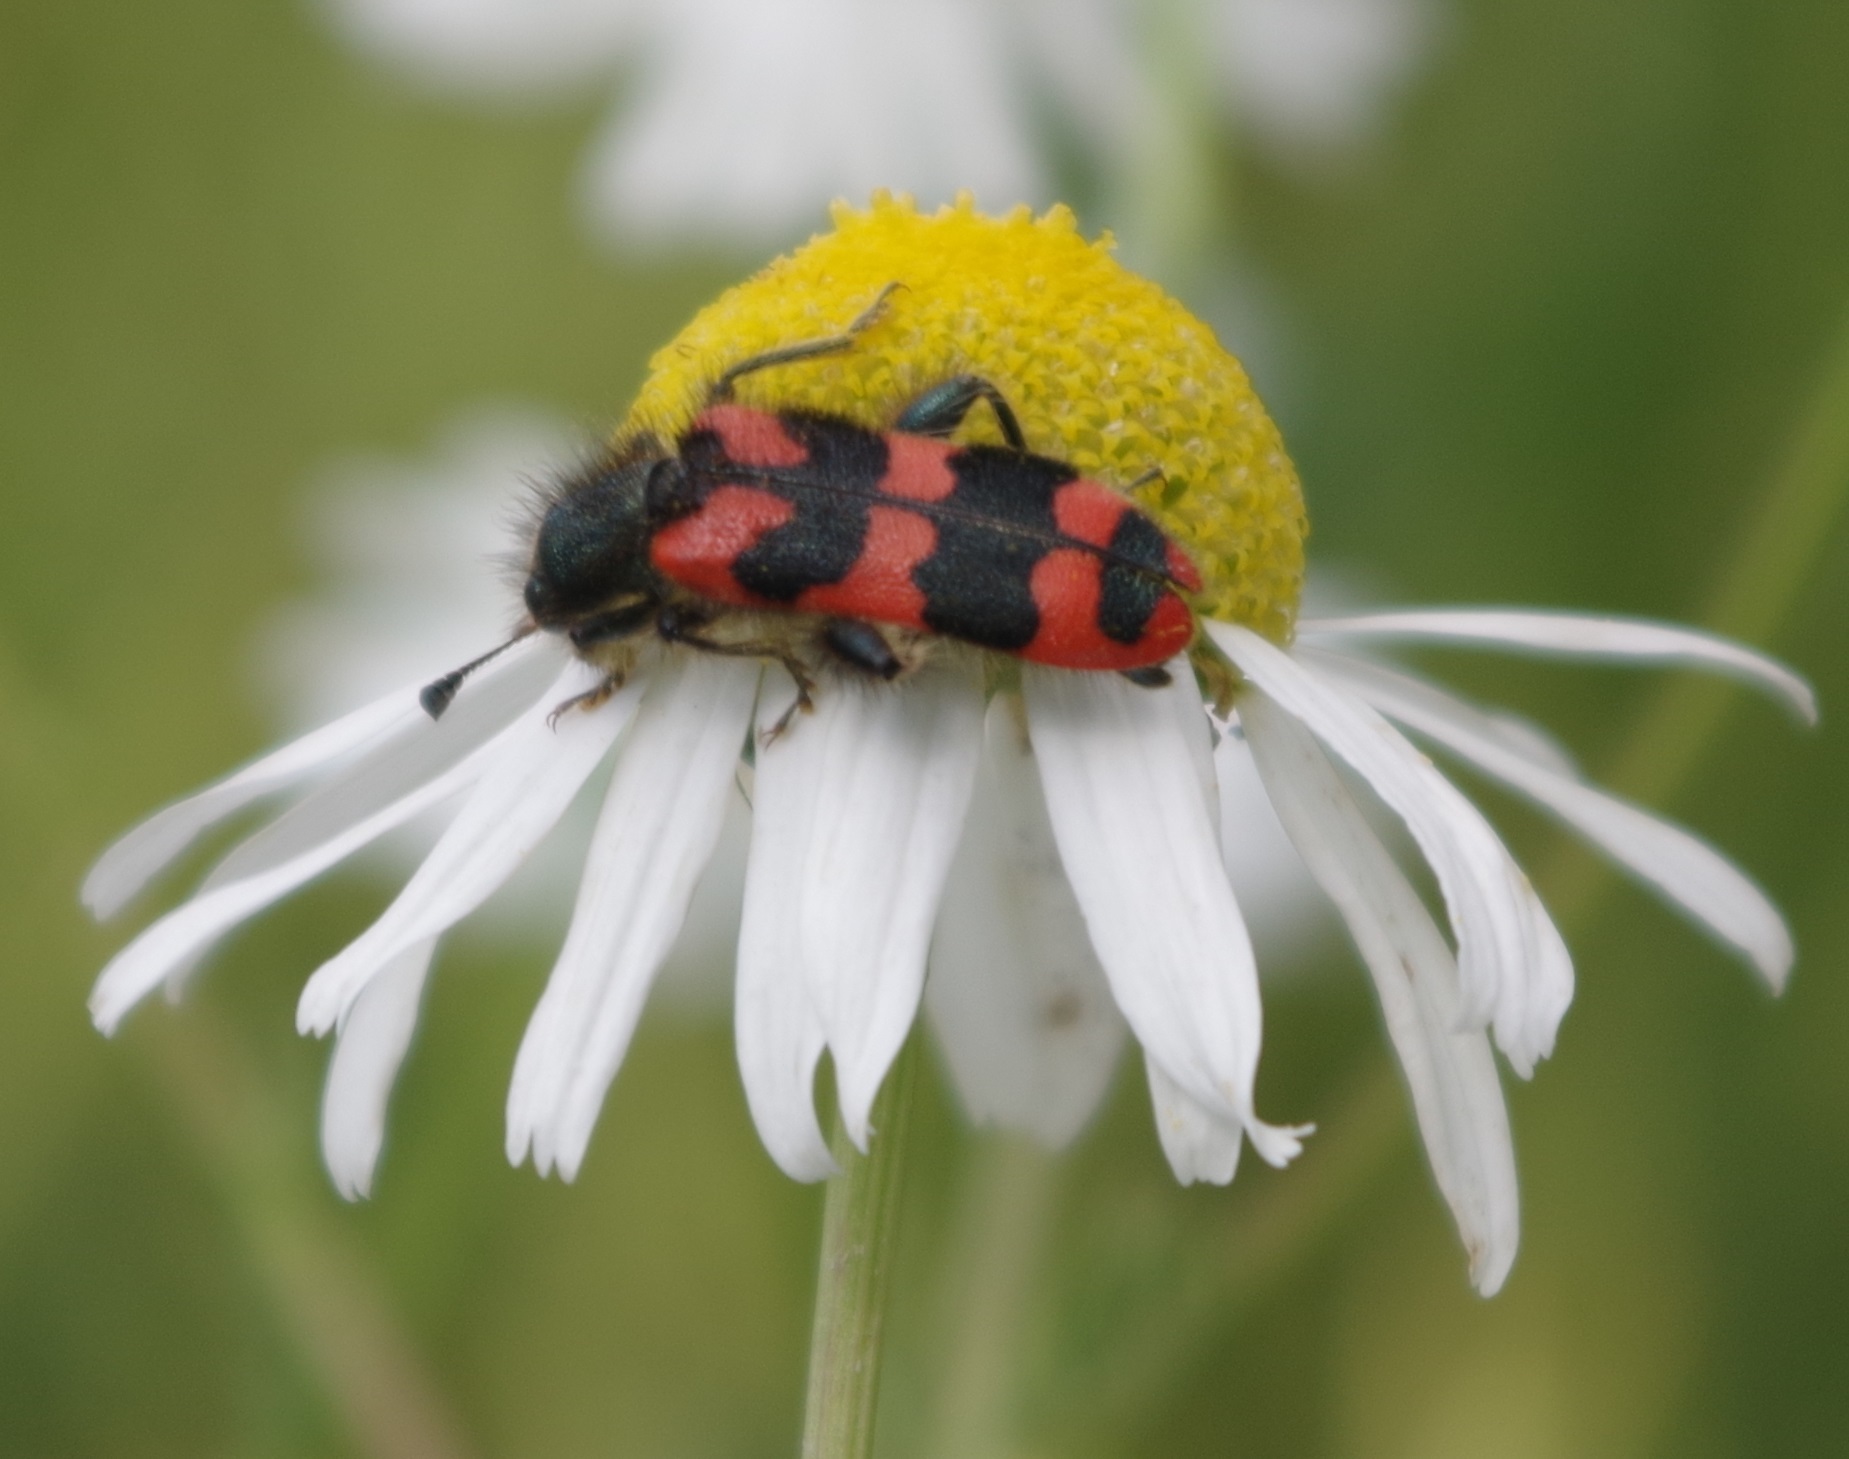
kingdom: Animalia
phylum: Arthropoda
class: Insecta
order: Coleoptera
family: Cleridae
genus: Trichodes
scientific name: Trichodes alvearius
